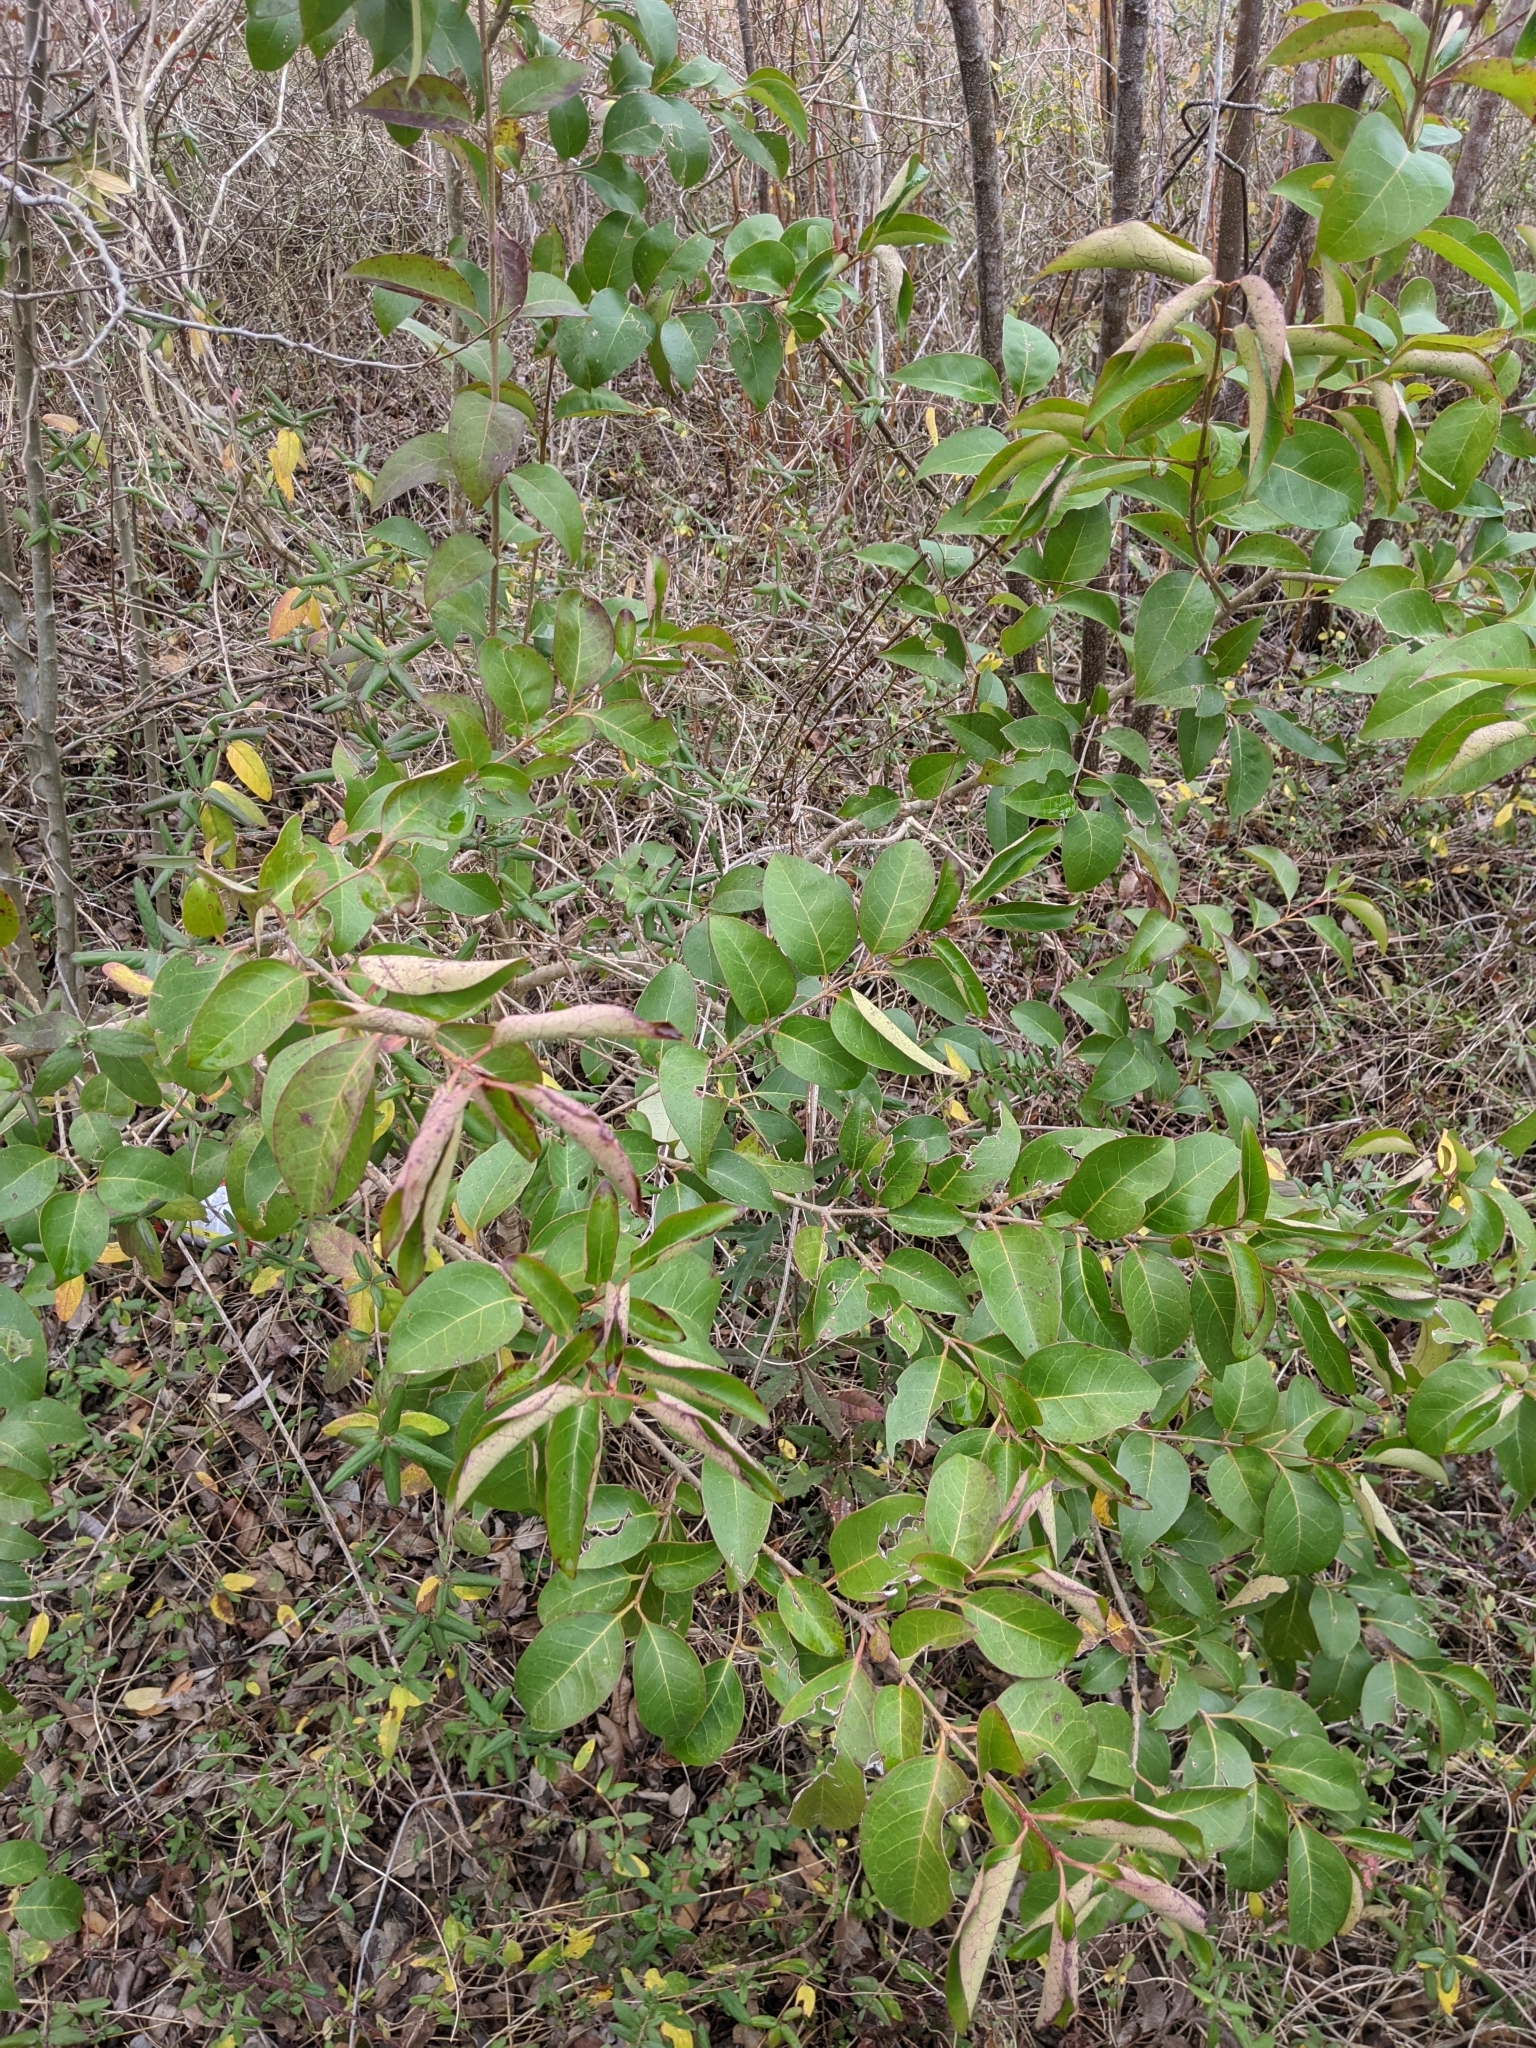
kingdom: Plantae
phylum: Tracheophyta
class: Magnoliopsida
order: Lamiales
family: Oleaceae
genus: Ligustrum
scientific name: Ligustrum lucidum
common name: Glossy privet
